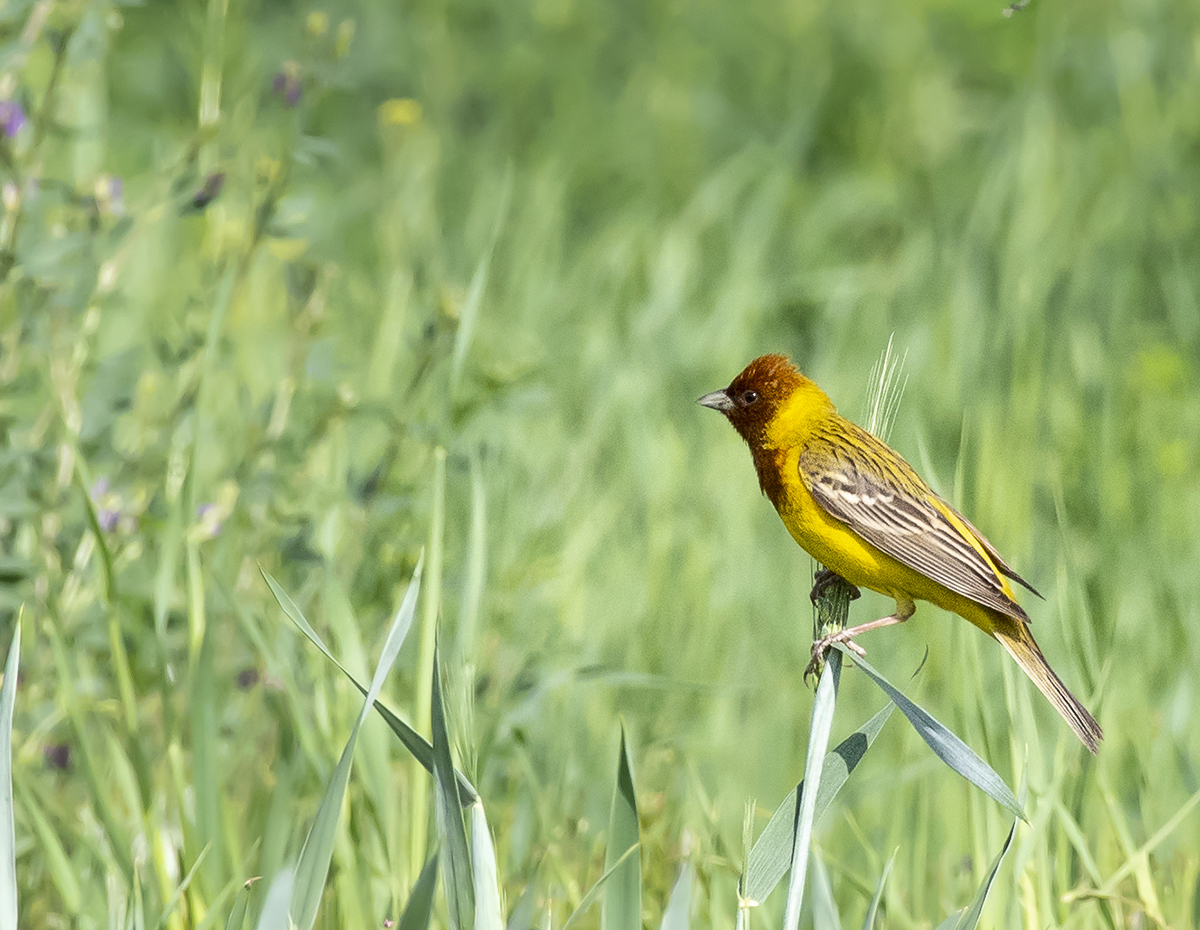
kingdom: Animalia
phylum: Chordata
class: Aves
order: Passeriformes
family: Emberizidae
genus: Emberiza
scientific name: Emberiza bruniceps
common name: Red-headed bunting
